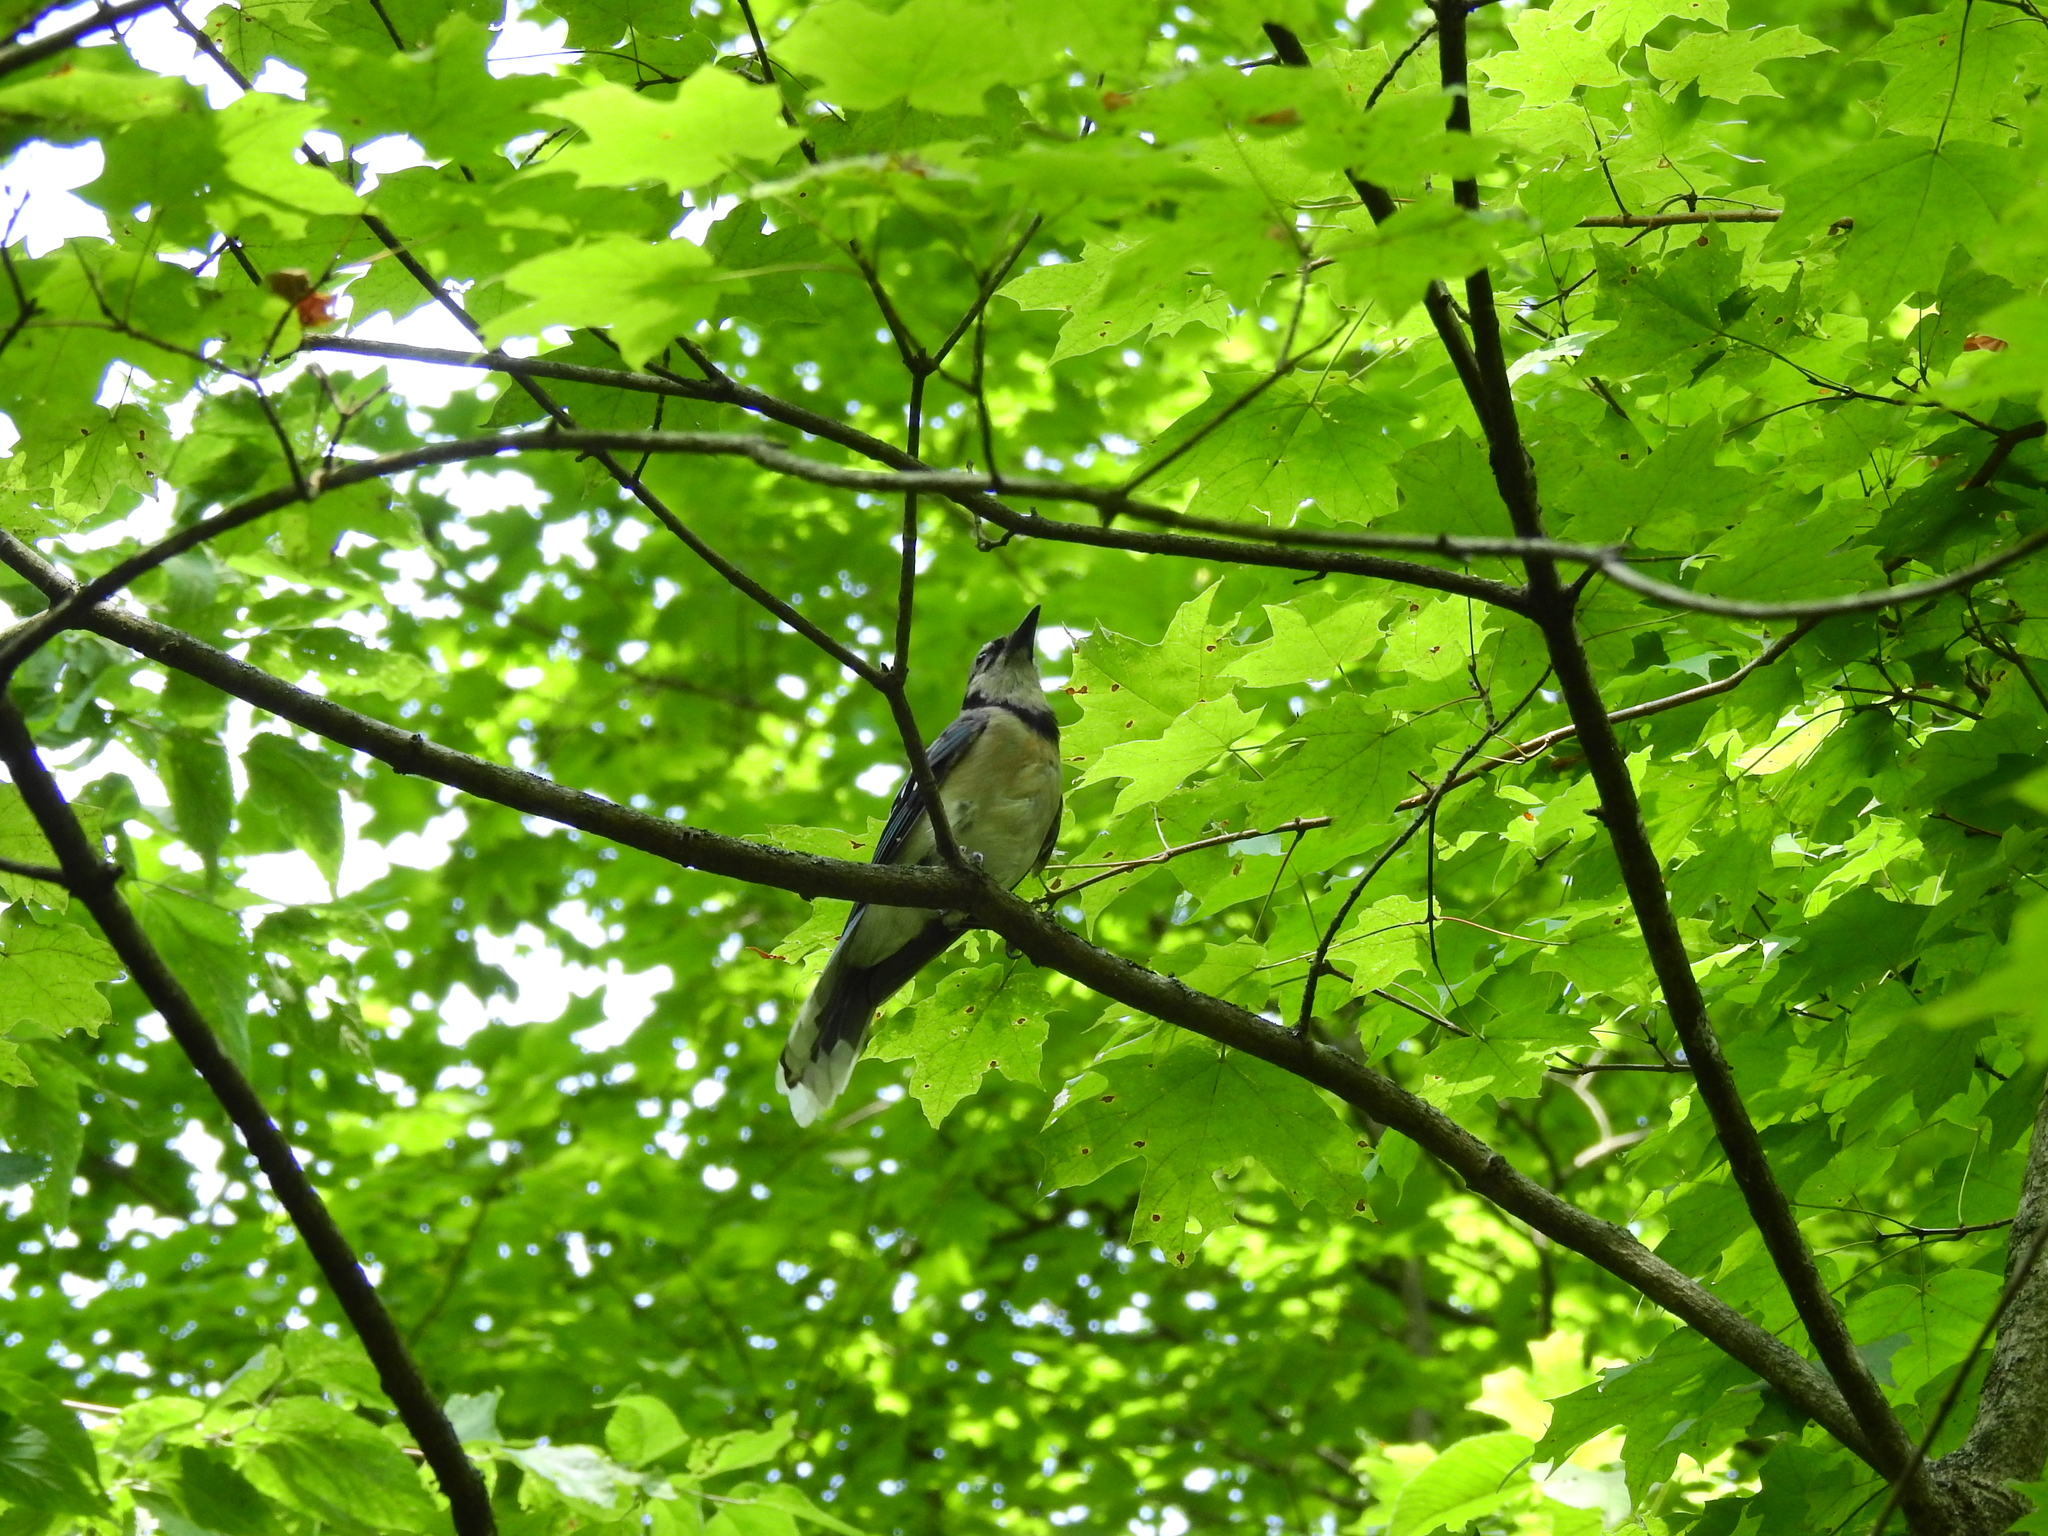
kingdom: Animalia
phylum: Chordata
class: Aves
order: Passeriformes
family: Corvidae
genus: Cyanocitta
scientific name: Cyanocitta cristata
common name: Blue jay
